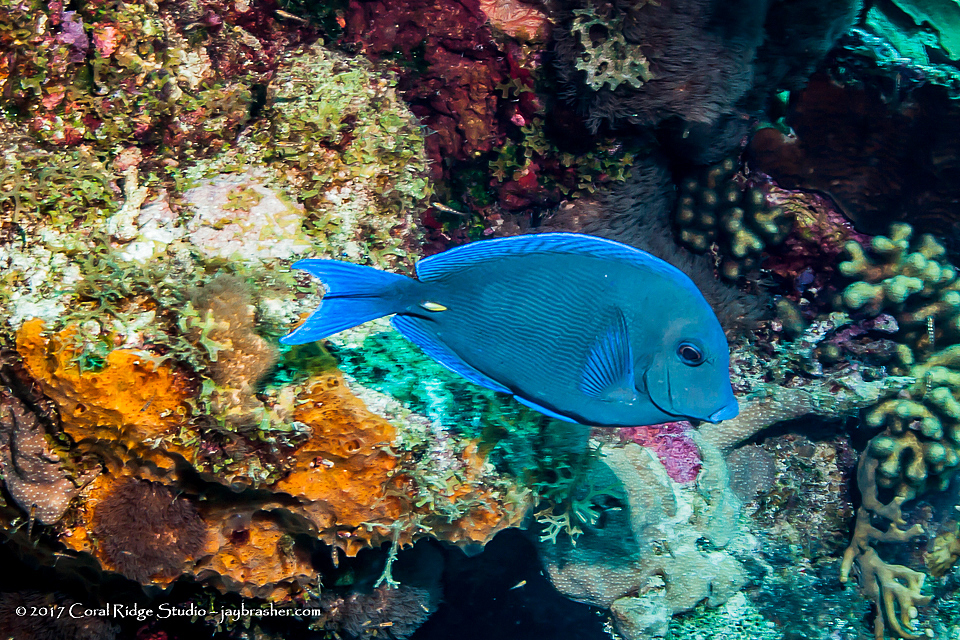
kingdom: Animalia
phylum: Chordata
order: Perciformes
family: Acanthuridae
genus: Acanthurus
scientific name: Acanthurus coeruleus
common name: Blue tang
